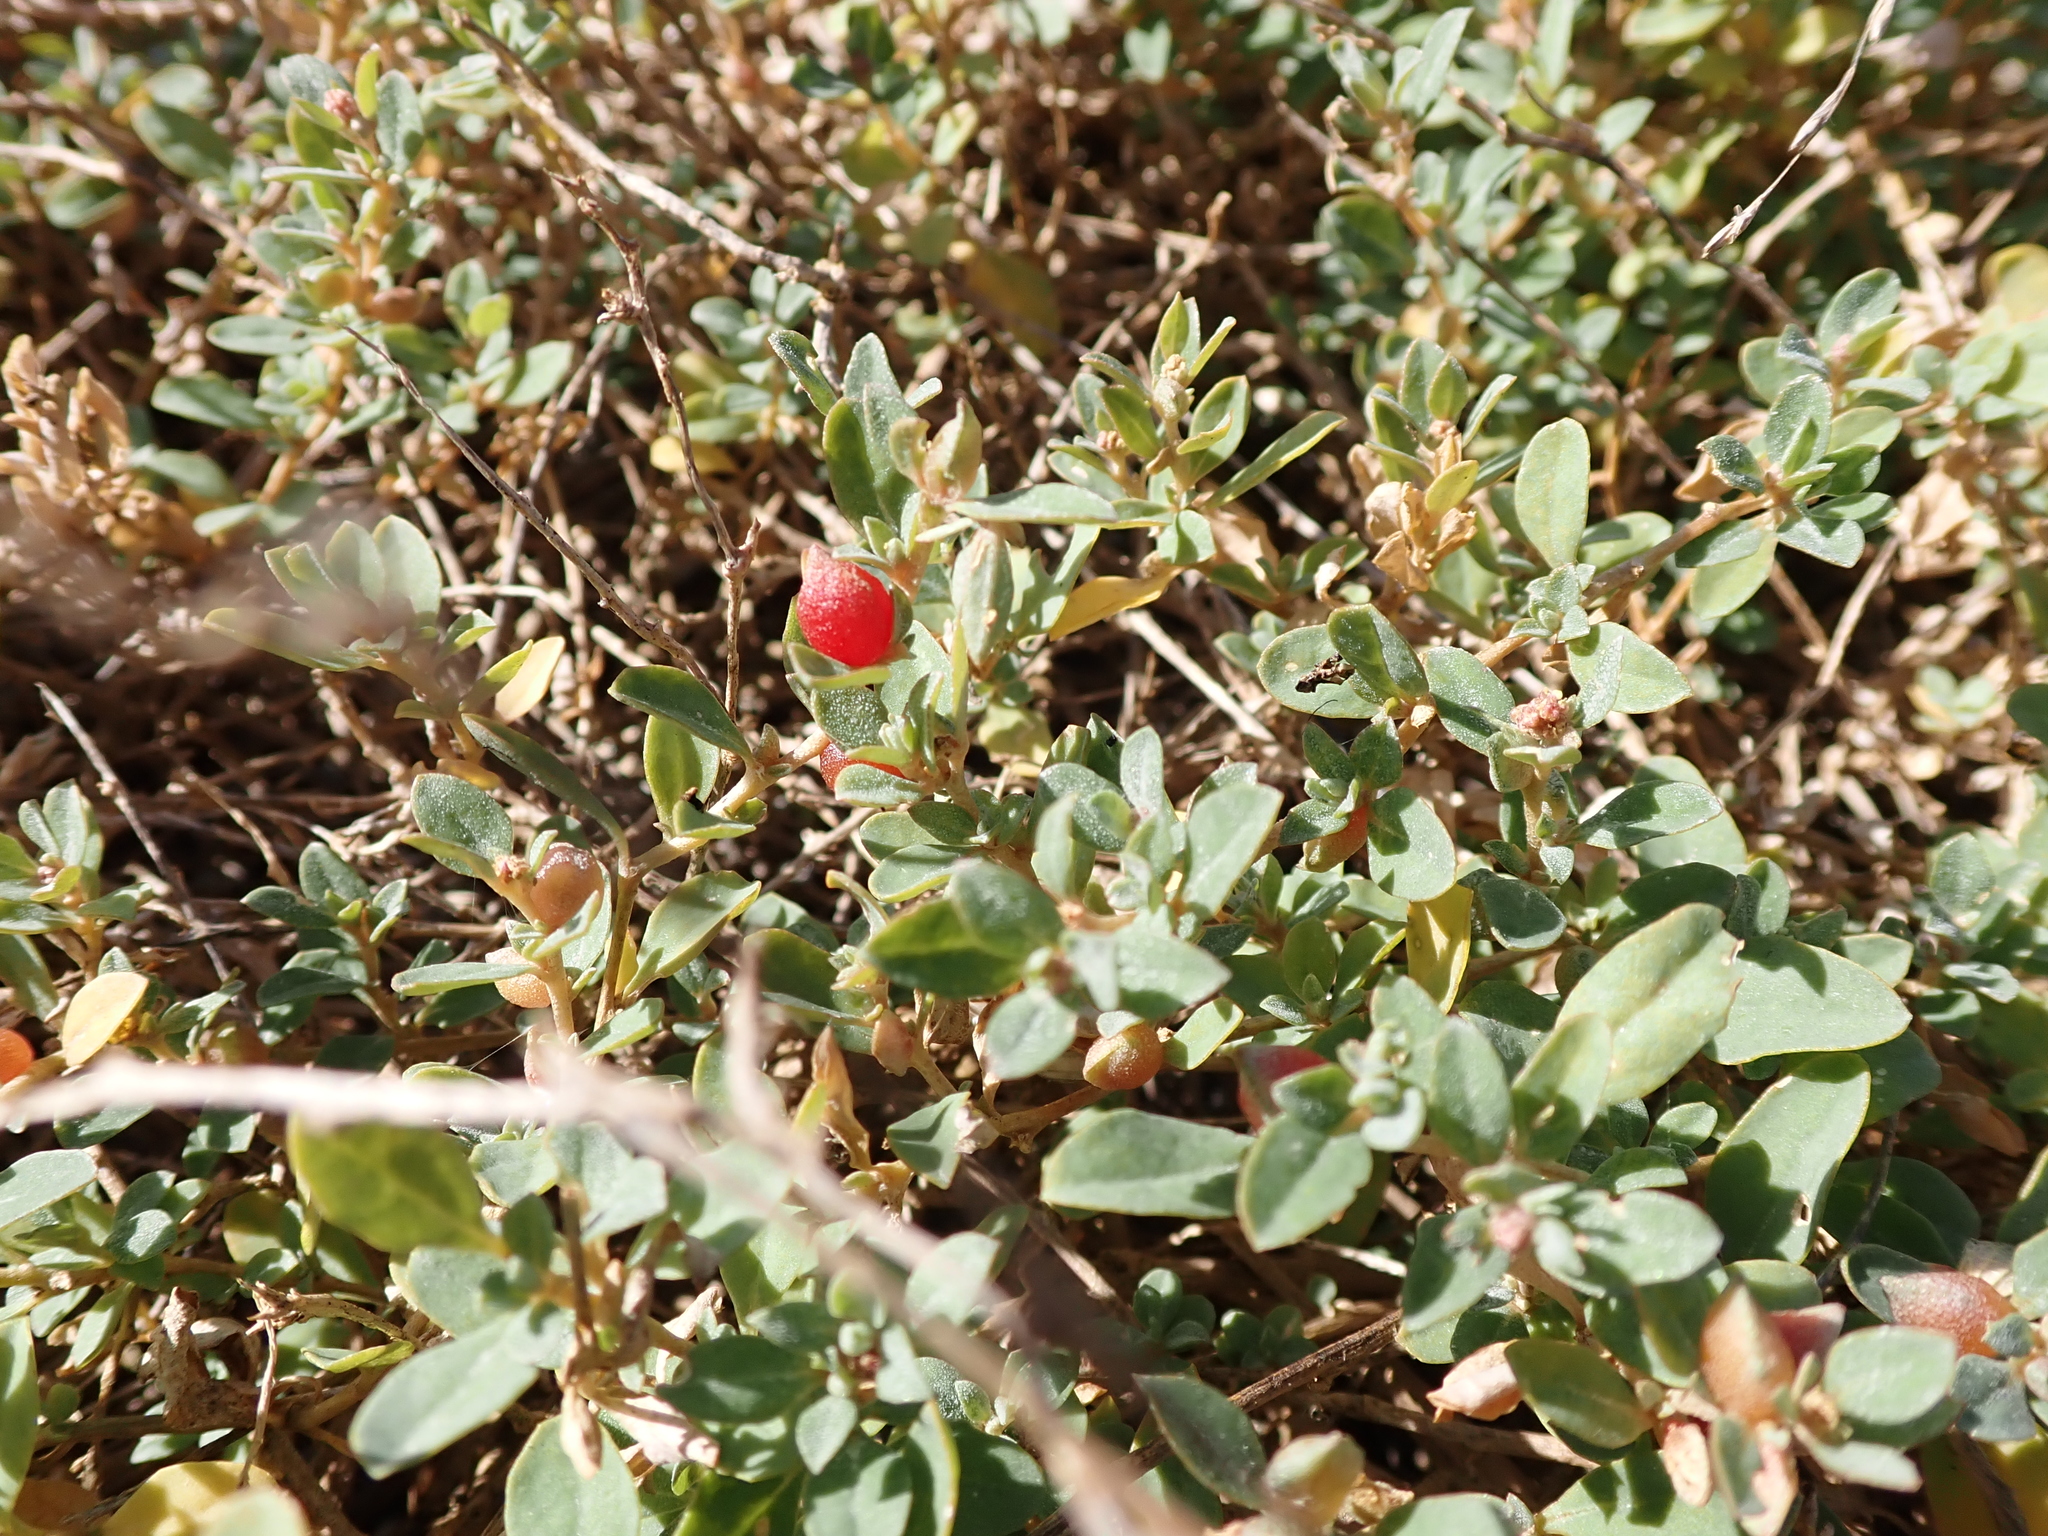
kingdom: Plantae
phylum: Tracheophyta
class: Magnoliopsida
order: Caryophyllales
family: Amaranthaceae
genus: Atriplex
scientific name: Atriplex semibaccata
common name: Australian saltbush
